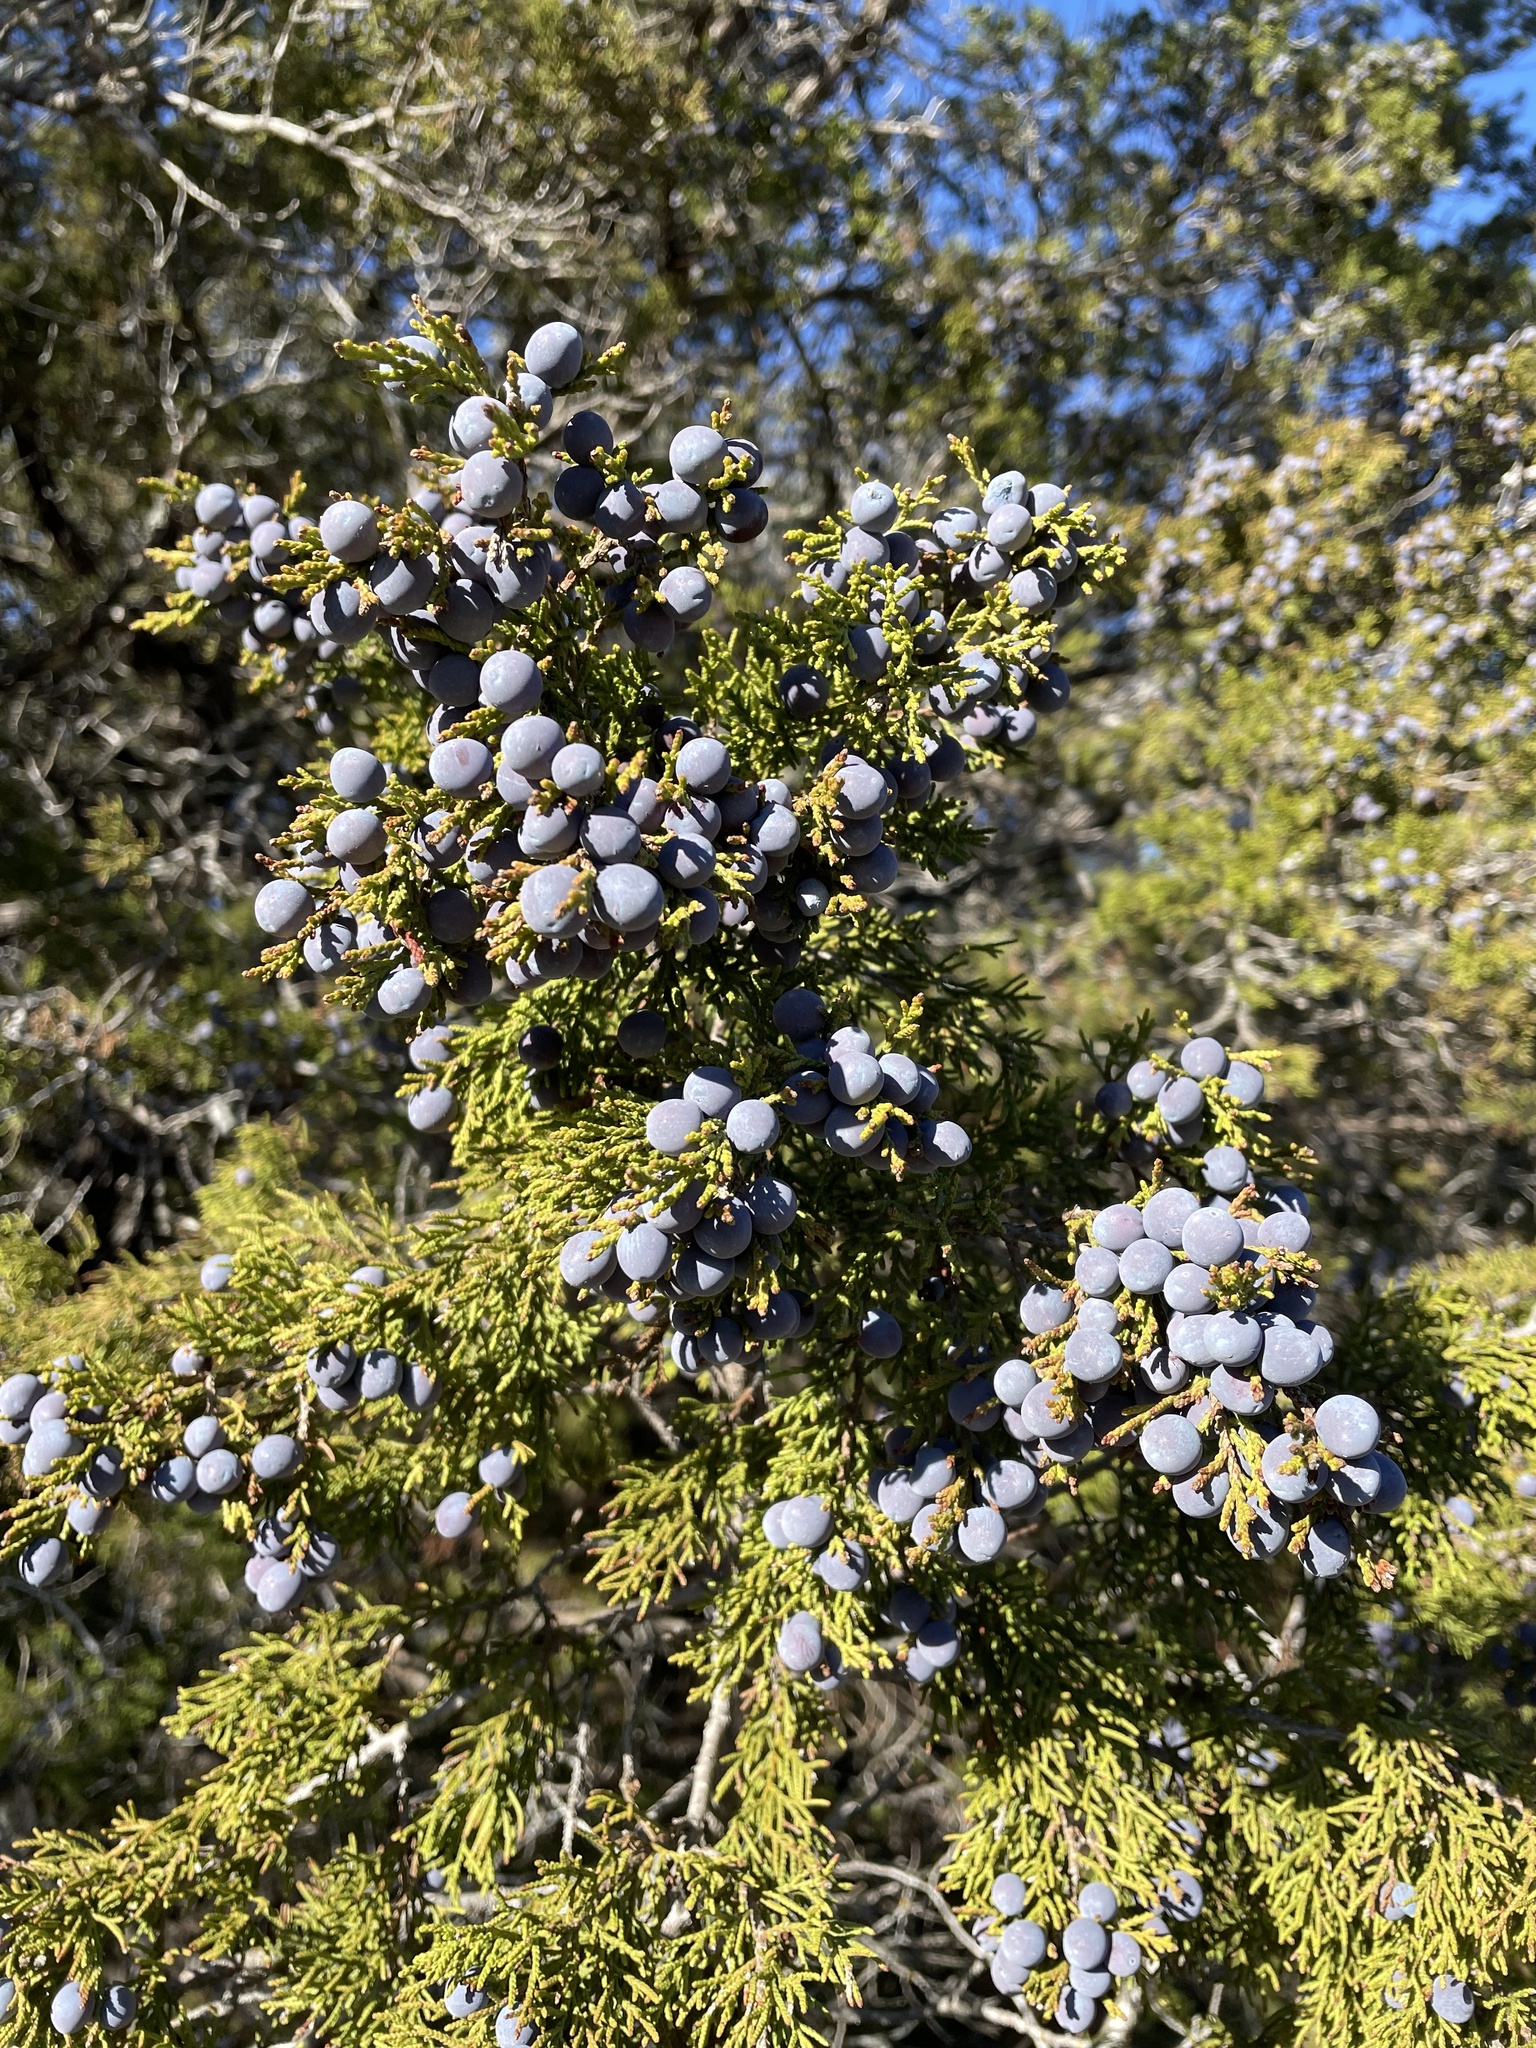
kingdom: Plantae
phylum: Tracheophyta
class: Pinopsida
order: Pinales
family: Cupressaceae
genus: Juniperus
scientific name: Juniperus ashei
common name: Mexican juniper
